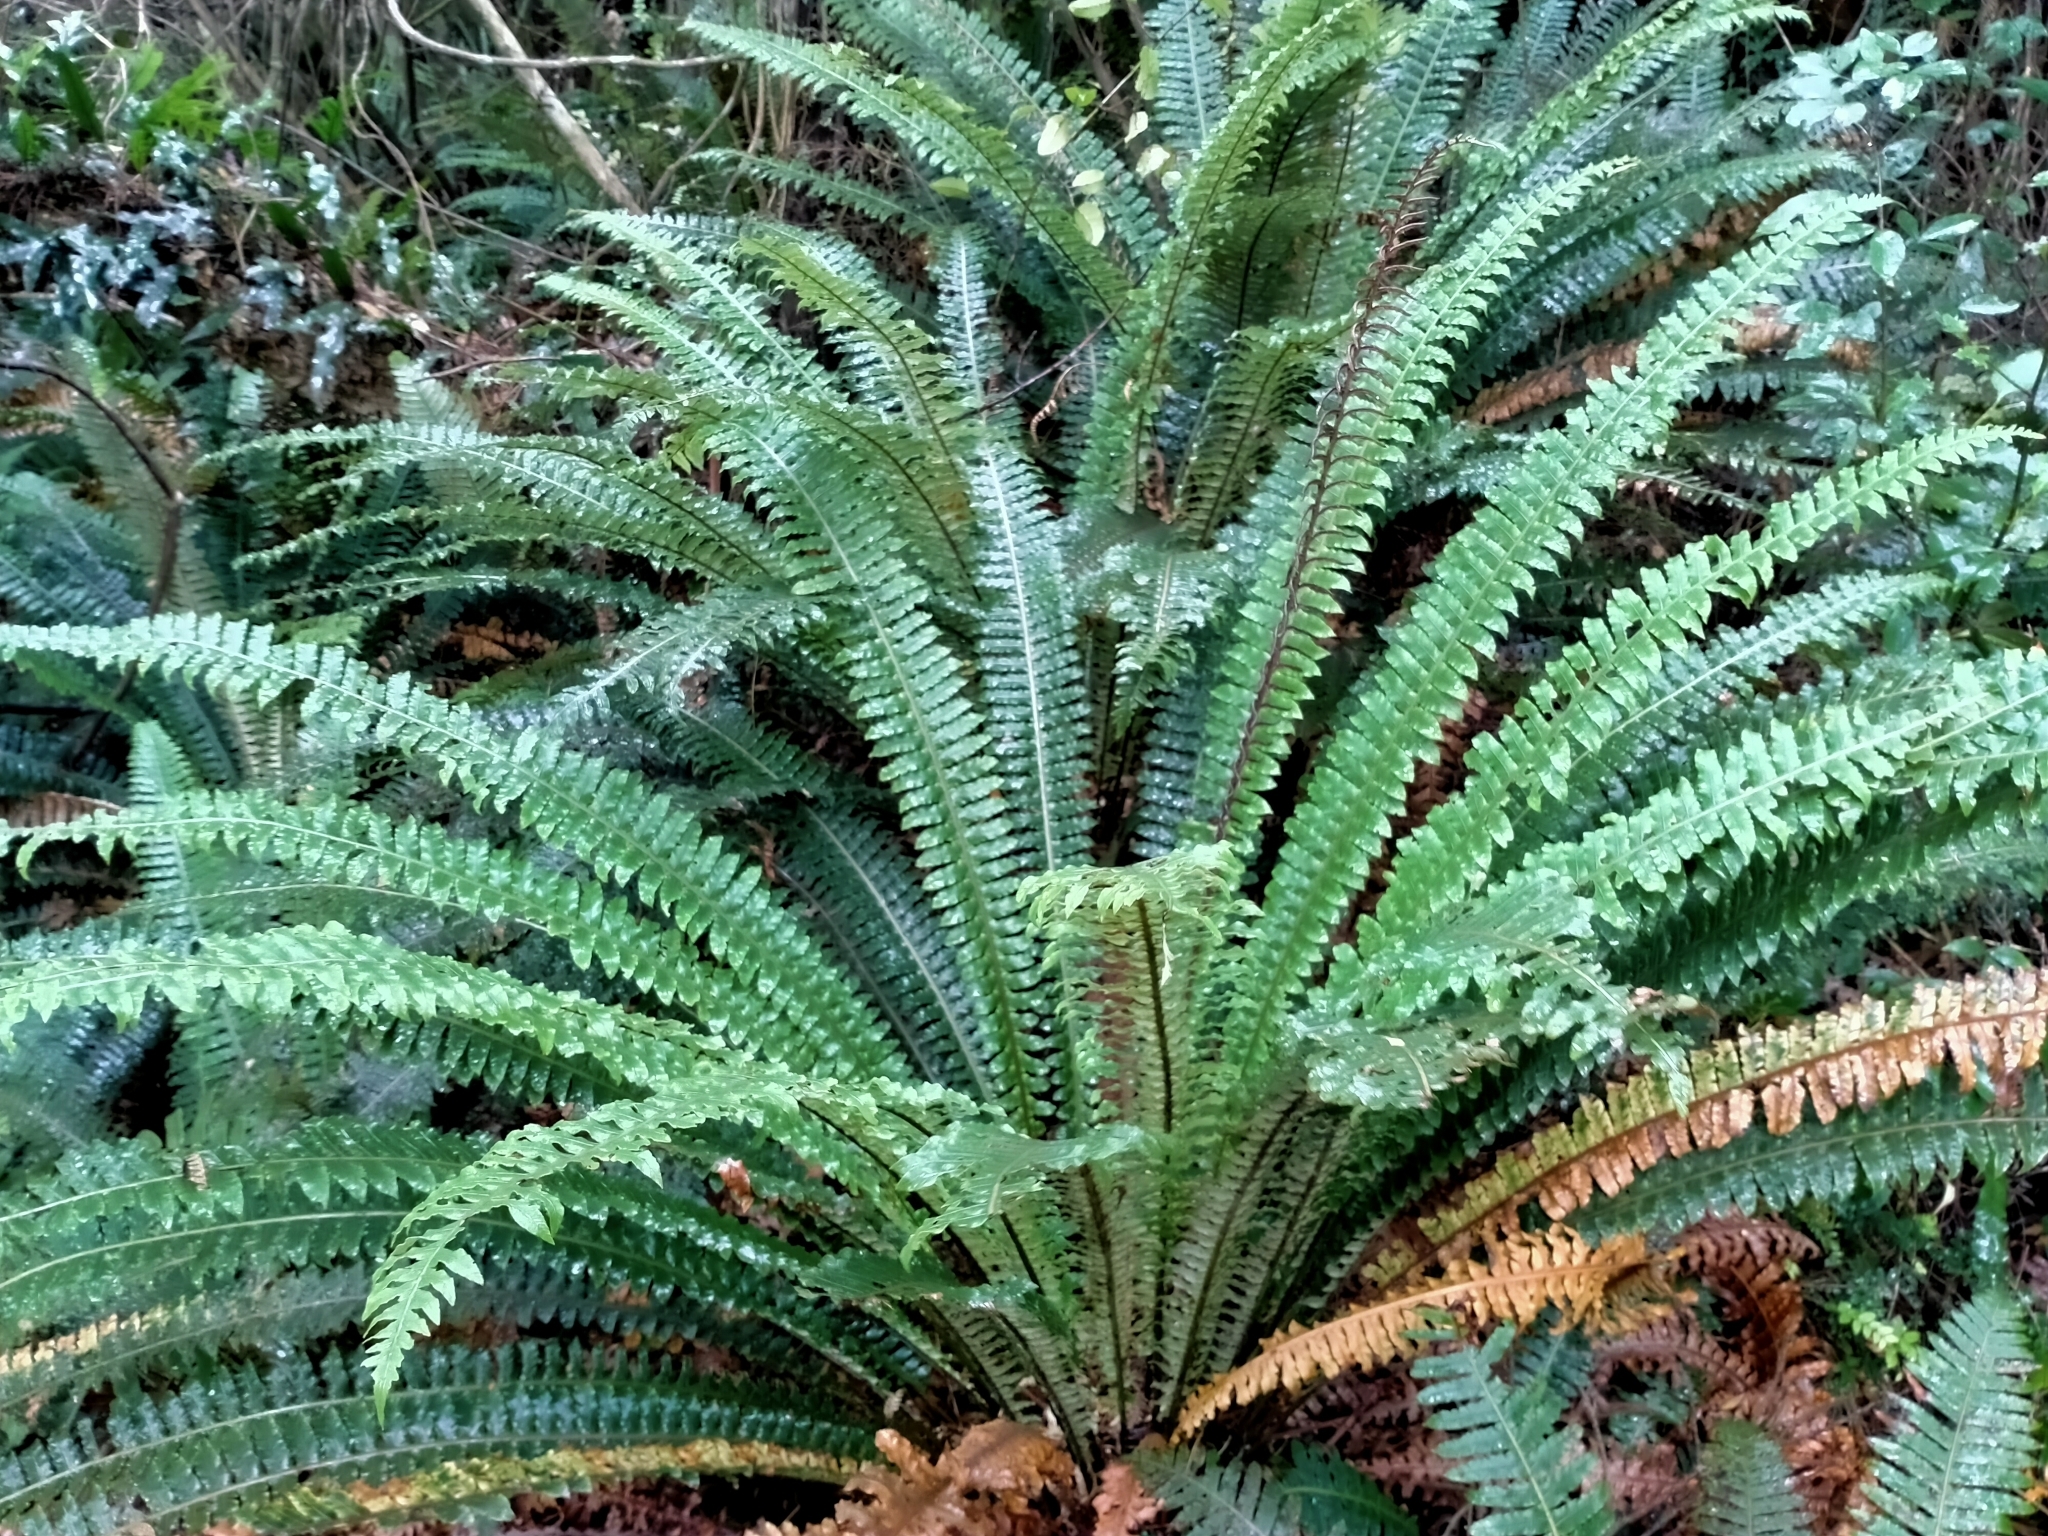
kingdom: Plantae
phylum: Tracheophyta
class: Polypodiopsida
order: Polypodiales
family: Blechnaceae
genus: Lomaria
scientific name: Lomaria discolor
